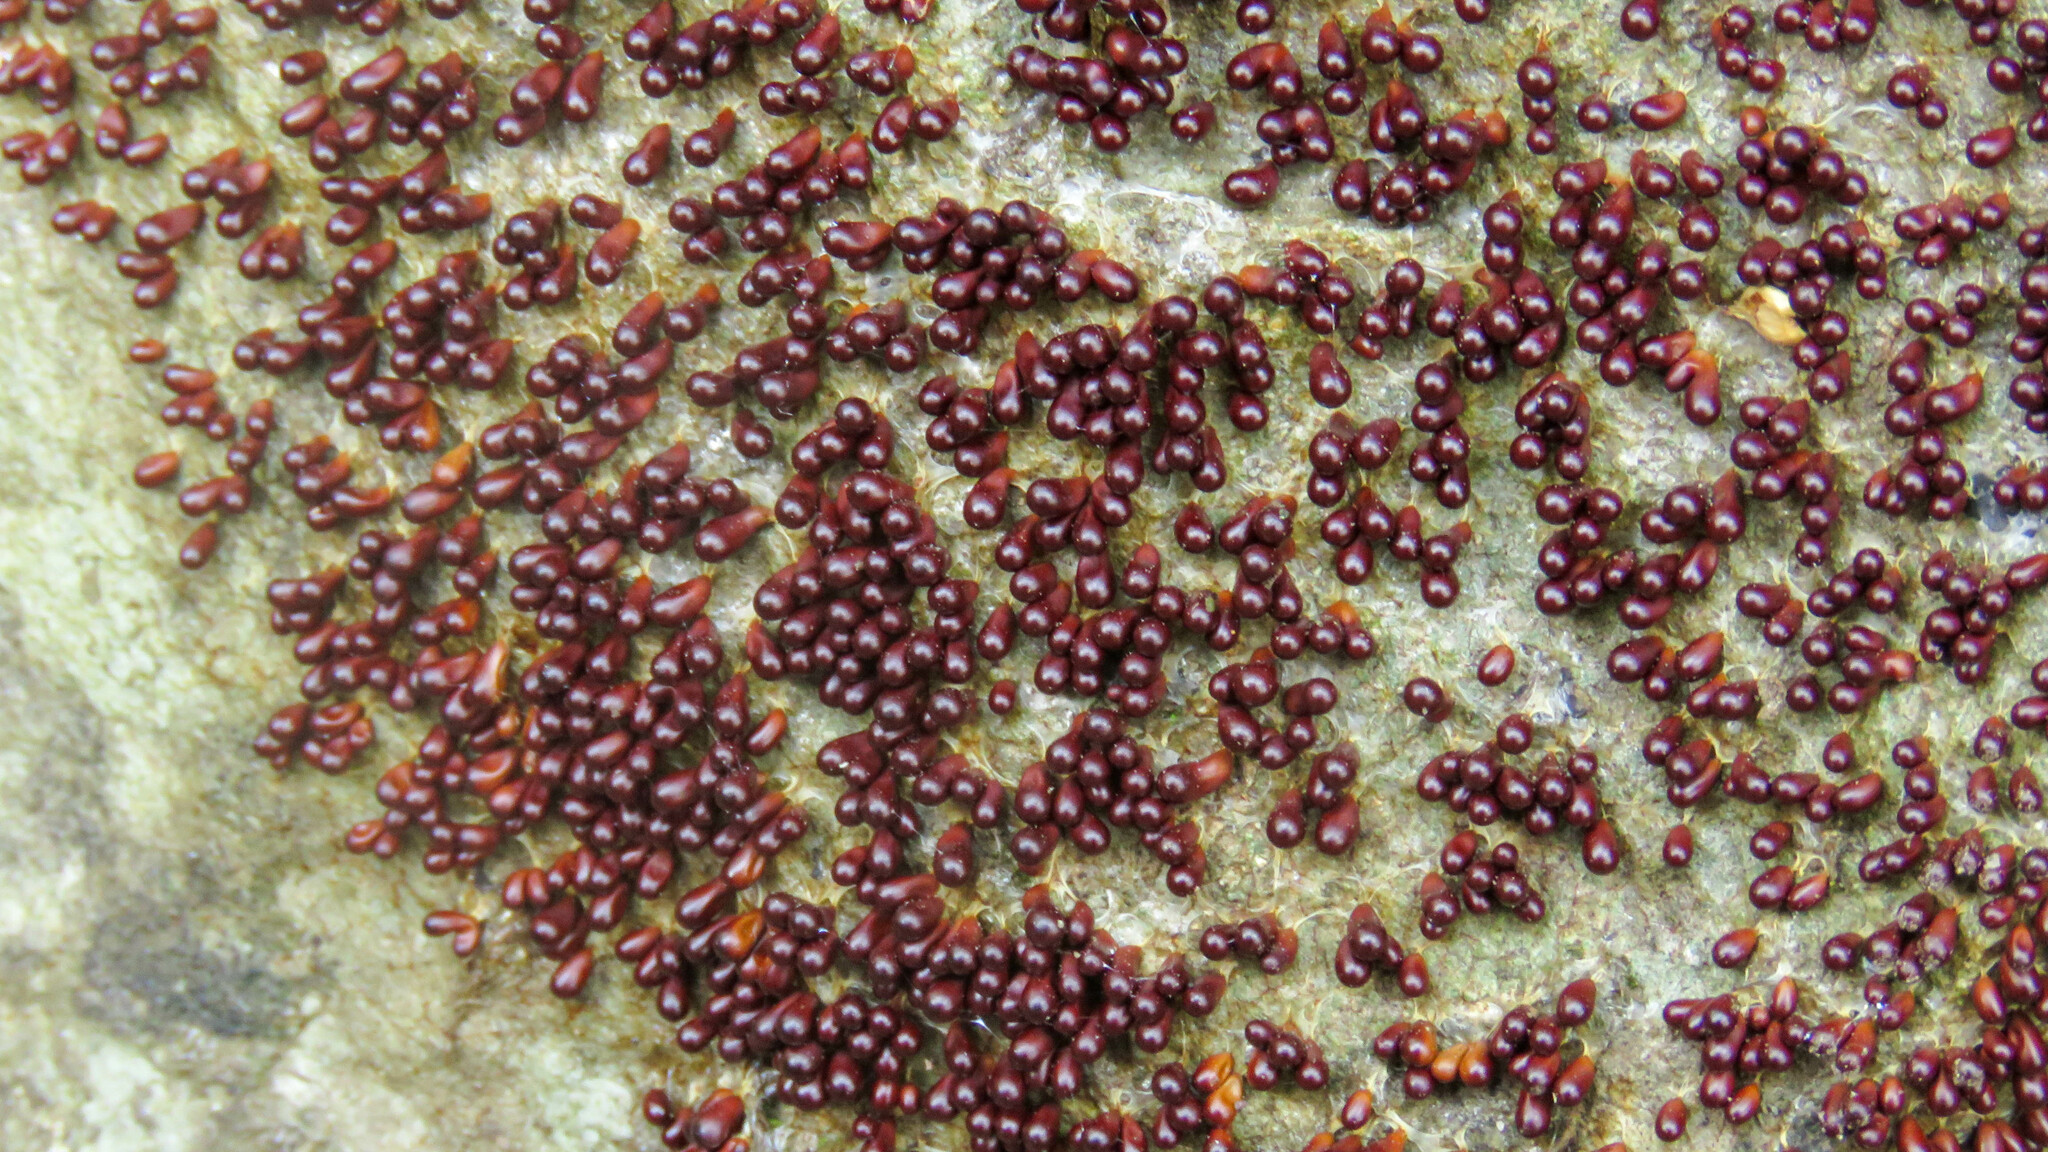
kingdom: Protozoa
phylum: Mycetozoa
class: Myxomycetes
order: Physarales
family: Physaraceae
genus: Leocarpus
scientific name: Leocarpus fragilis
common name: Insect-egg slime
